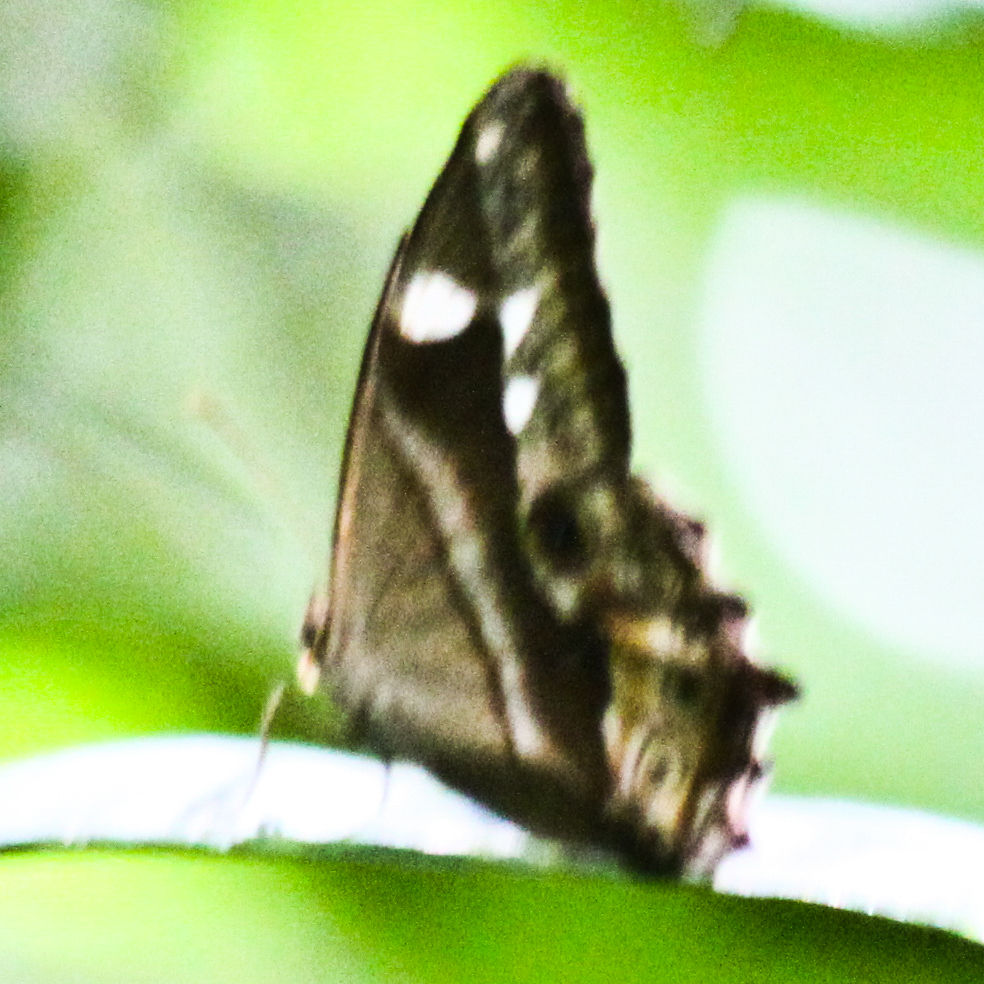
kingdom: Animalia
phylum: Arthropoda
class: Insecta
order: Lepidoptera
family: Nymphalidae
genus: Lethe
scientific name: Lethe mekara
